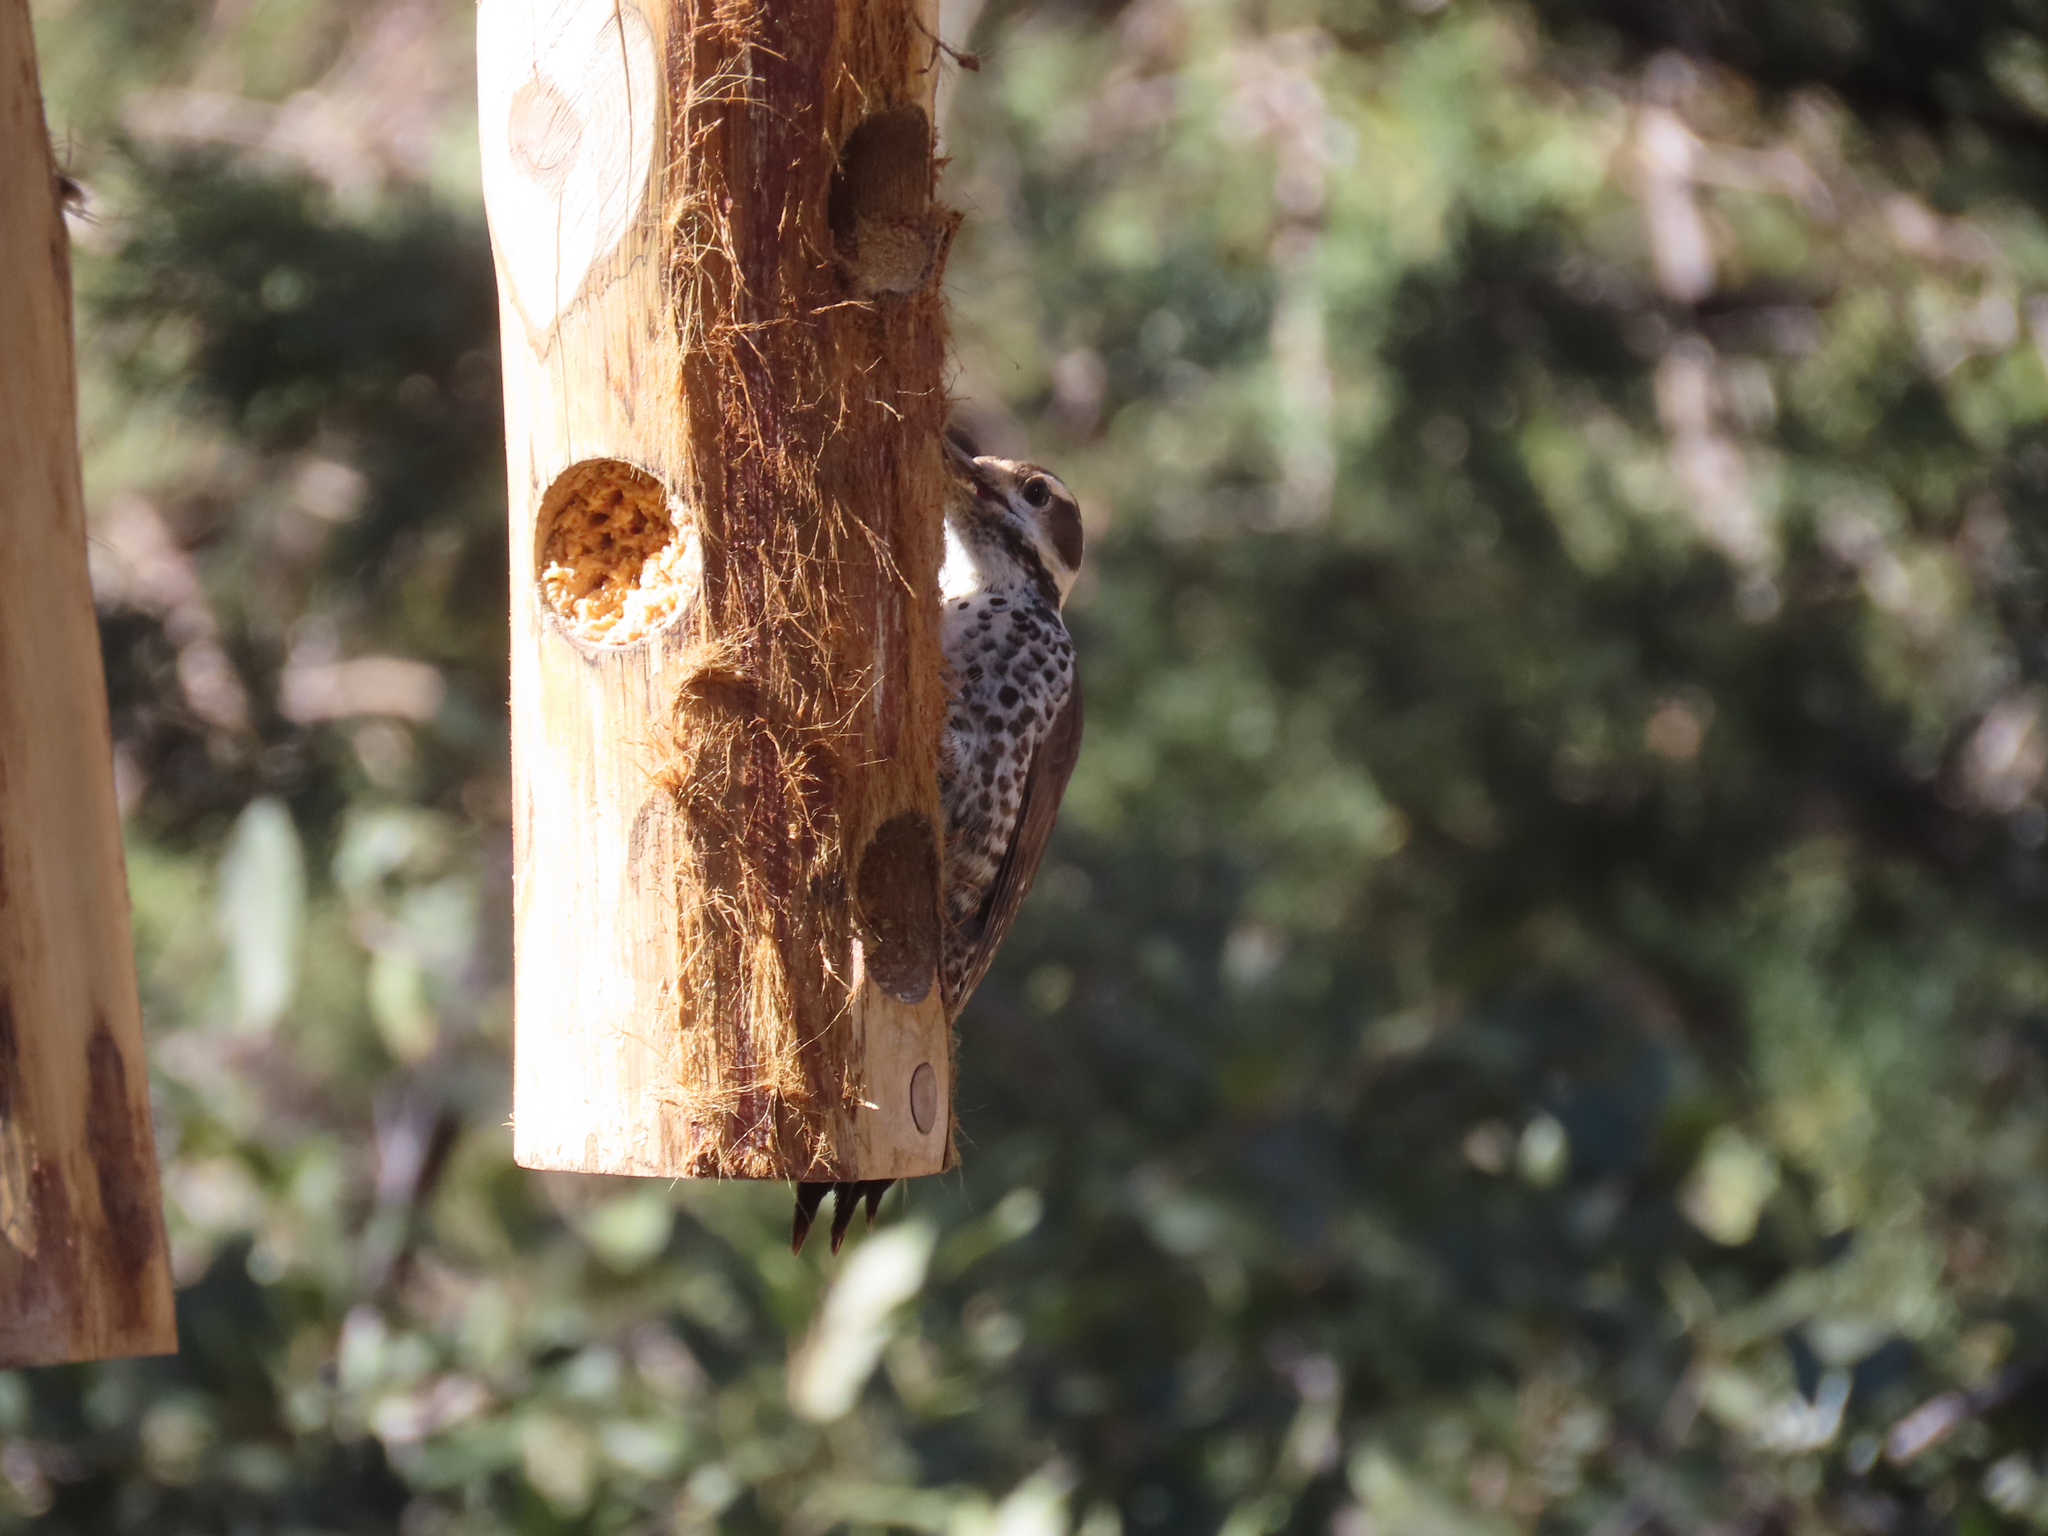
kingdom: Animalia
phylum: Chordata
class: Aves
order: Piciformes
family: Picidae
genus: Leuconotopicus
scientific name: Leuconotopicus arizonae
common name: Arizona woodpecker
